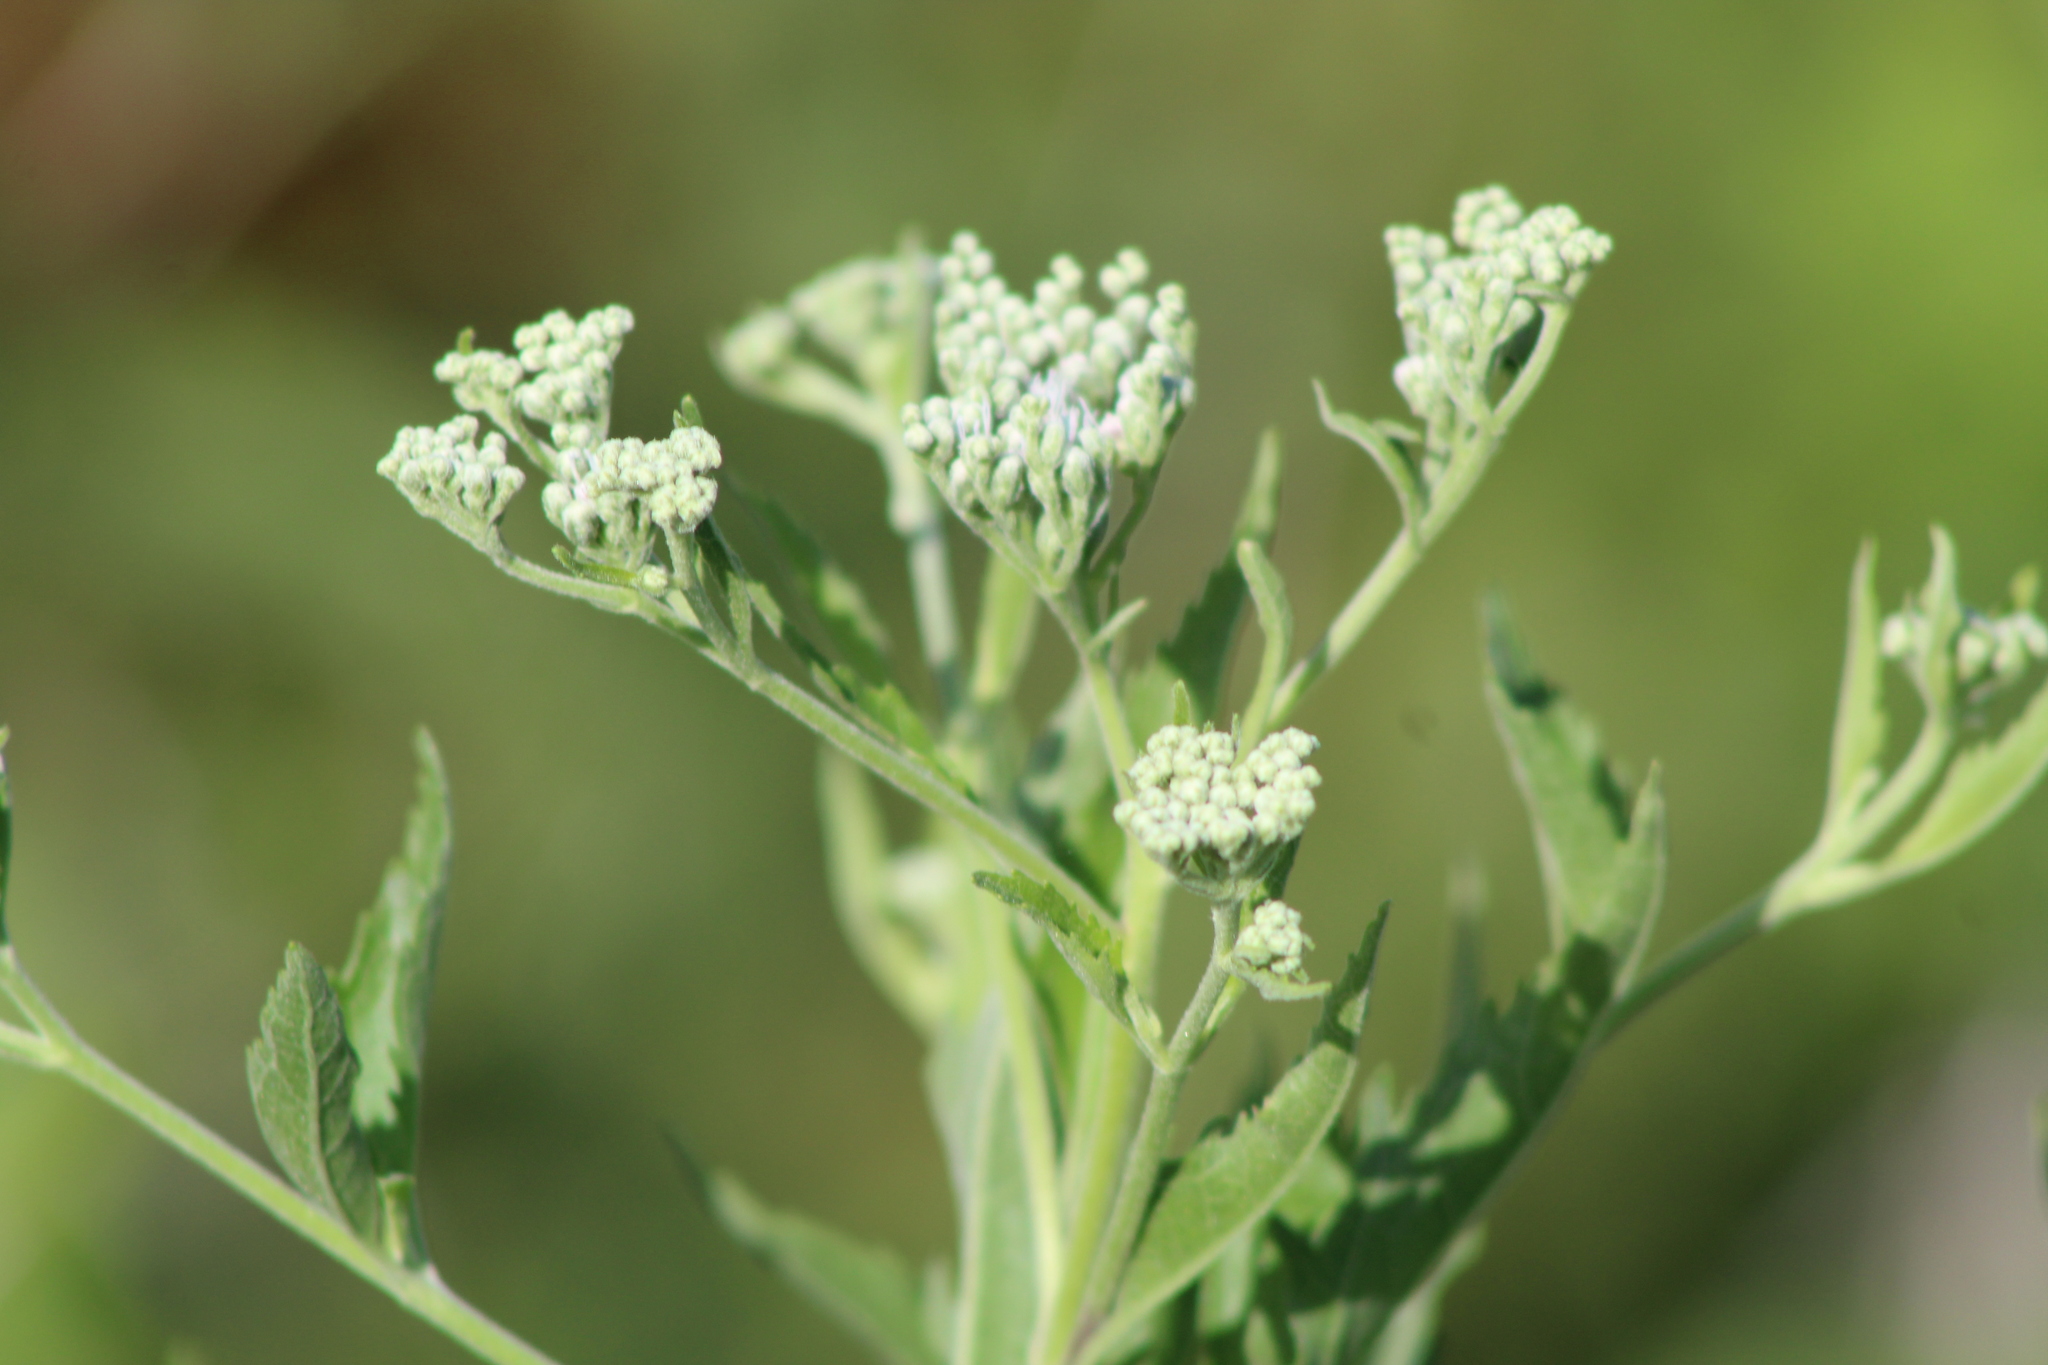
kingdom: Plantae
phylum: Tracheophyta
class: Magnoliopsida
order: Asterales
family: Asteraceae
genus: Eupatorium
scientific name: Eupatorium serotinum
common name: Late boneset
